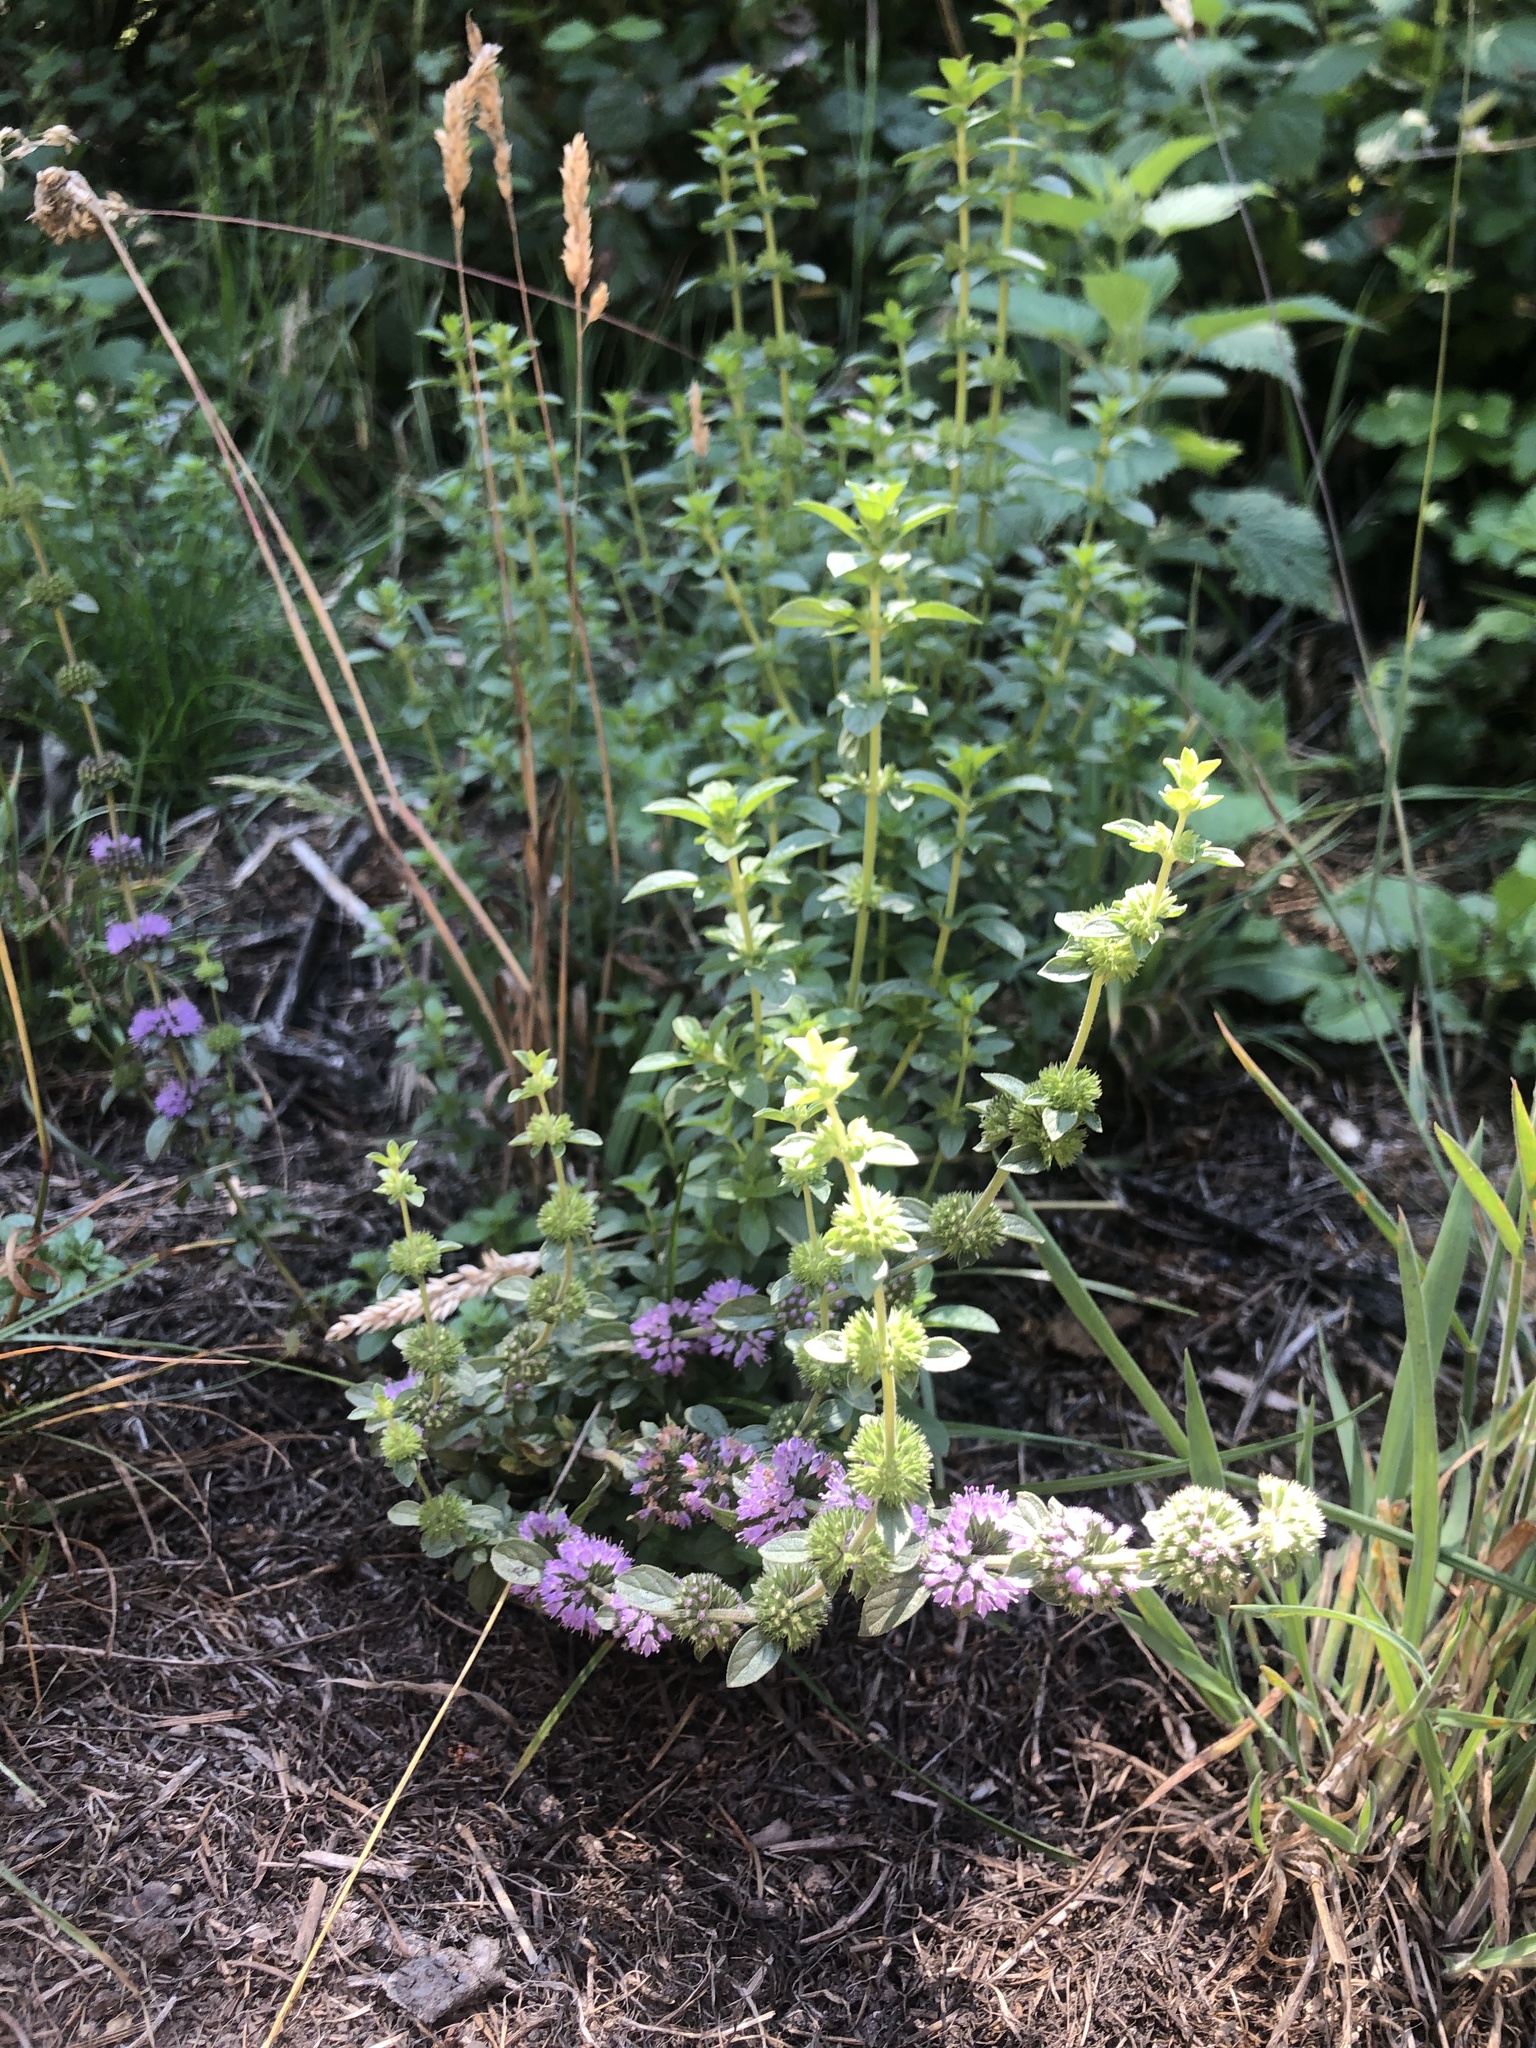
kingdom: Plantae
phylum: Tracheophyta
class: Magnoliopsida
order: Lamiales
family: Lamiaceae
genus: Mentha
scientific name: Mentha pulegium
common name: Pennyroyal
